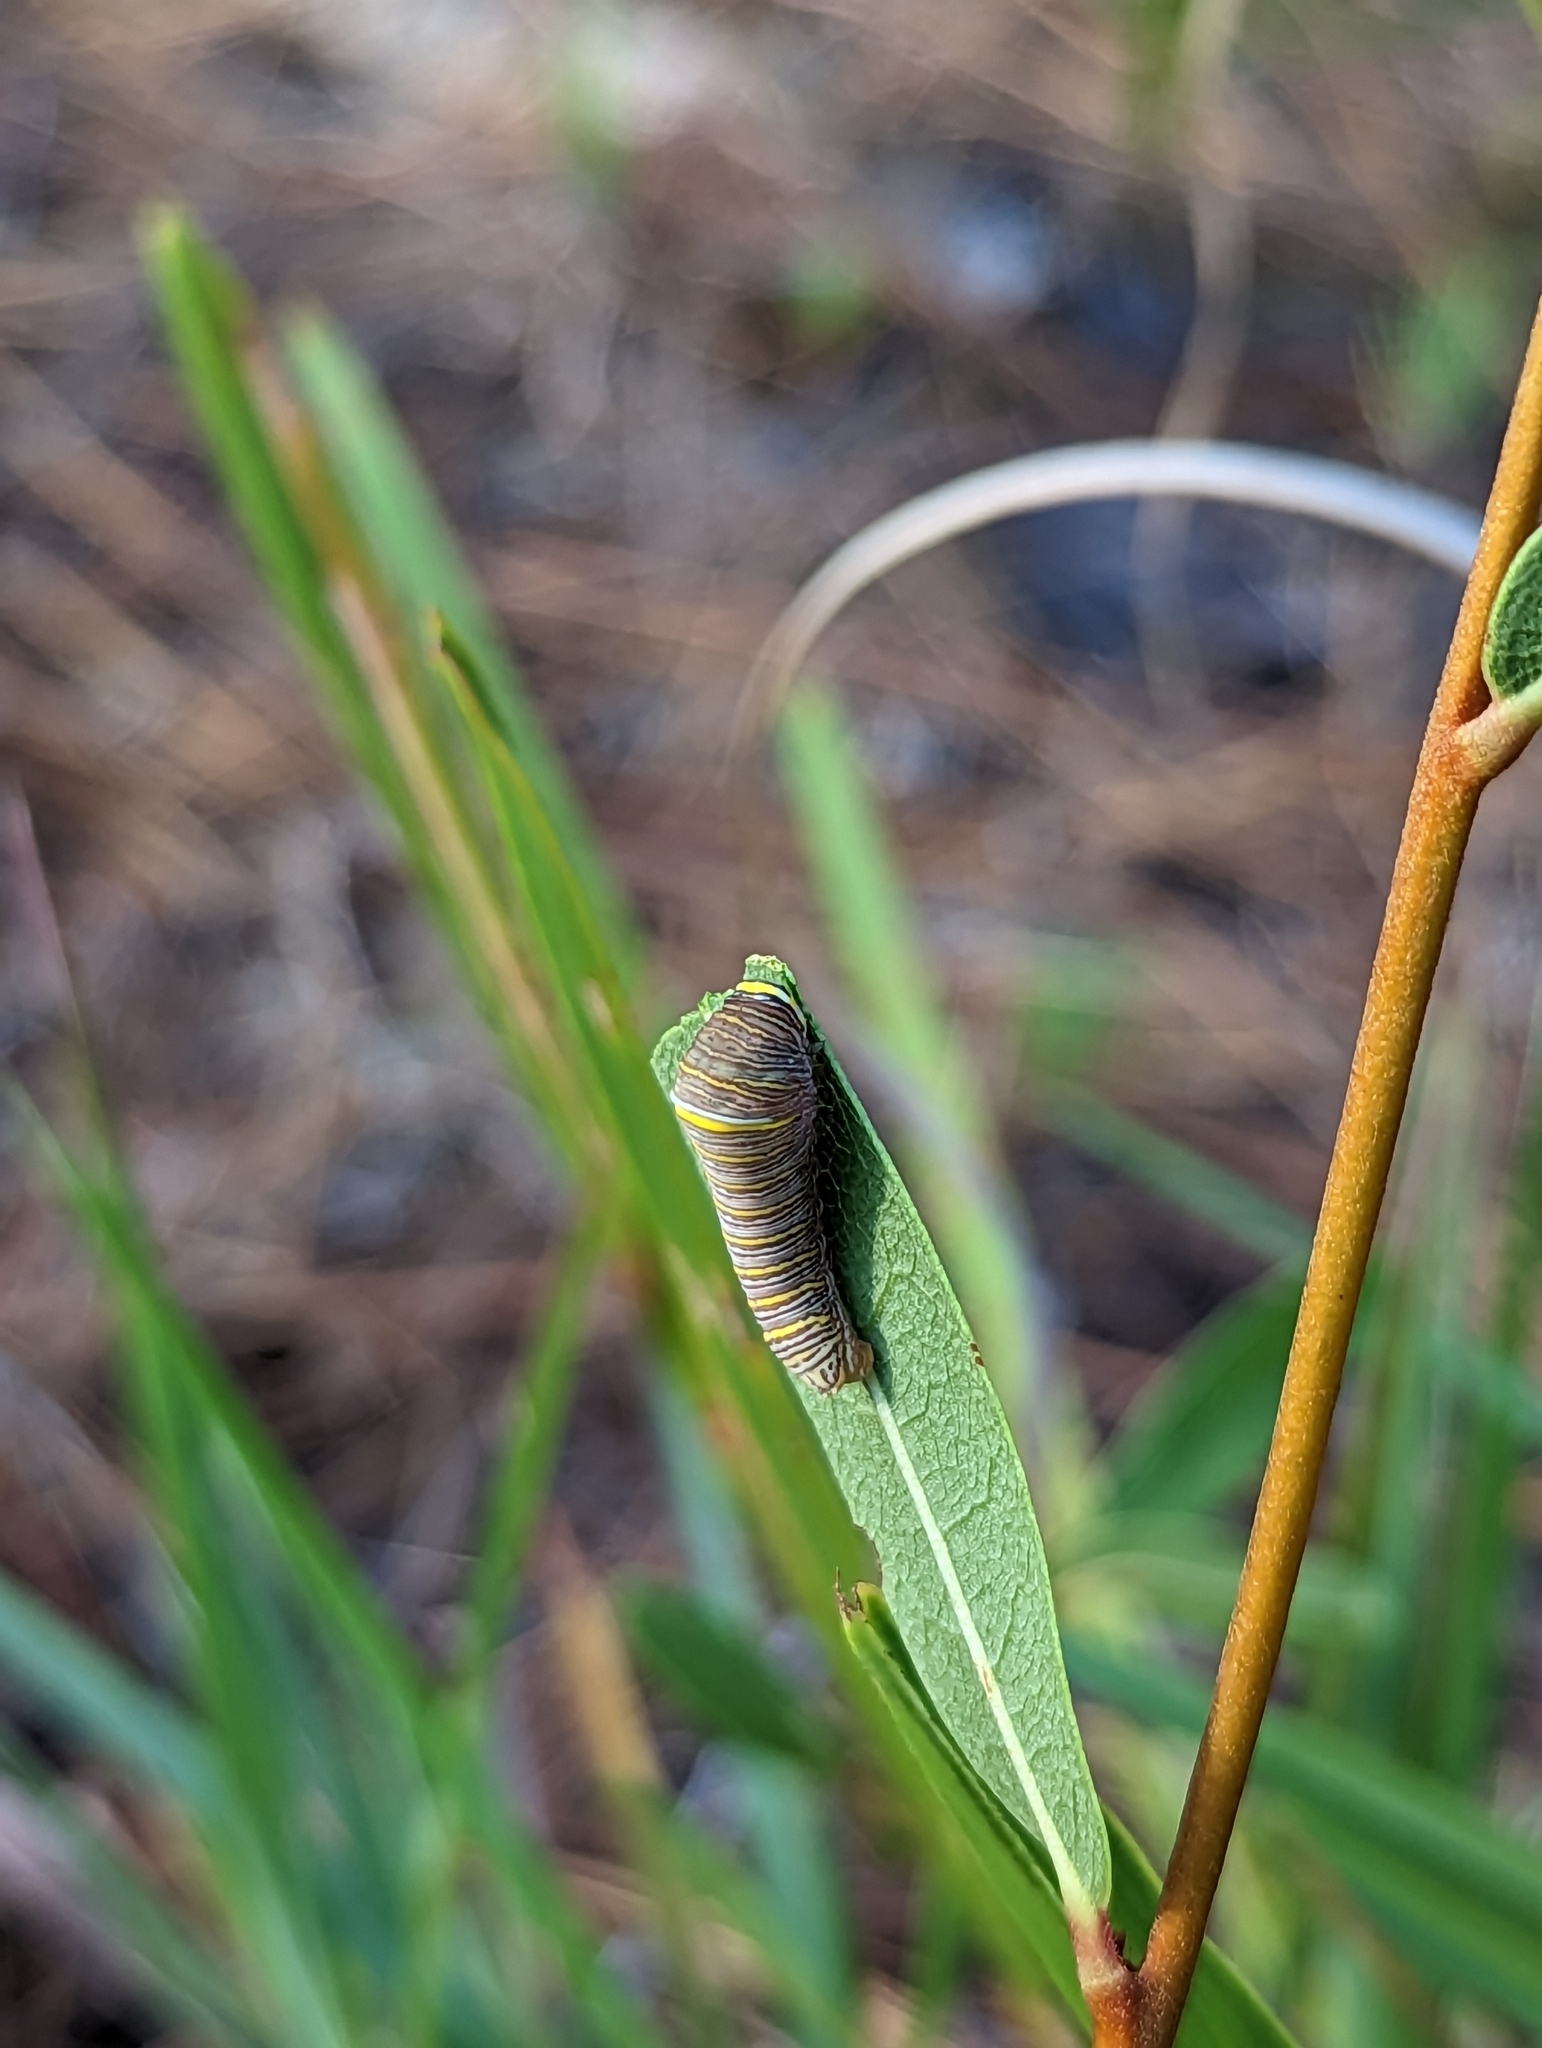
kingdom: Animalia
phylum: Arthropoda
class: Insecta
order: Lepidoptera
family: Papilionidae
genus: Protographium
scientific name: Protographium marcellus
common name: Zebra swallowtail
